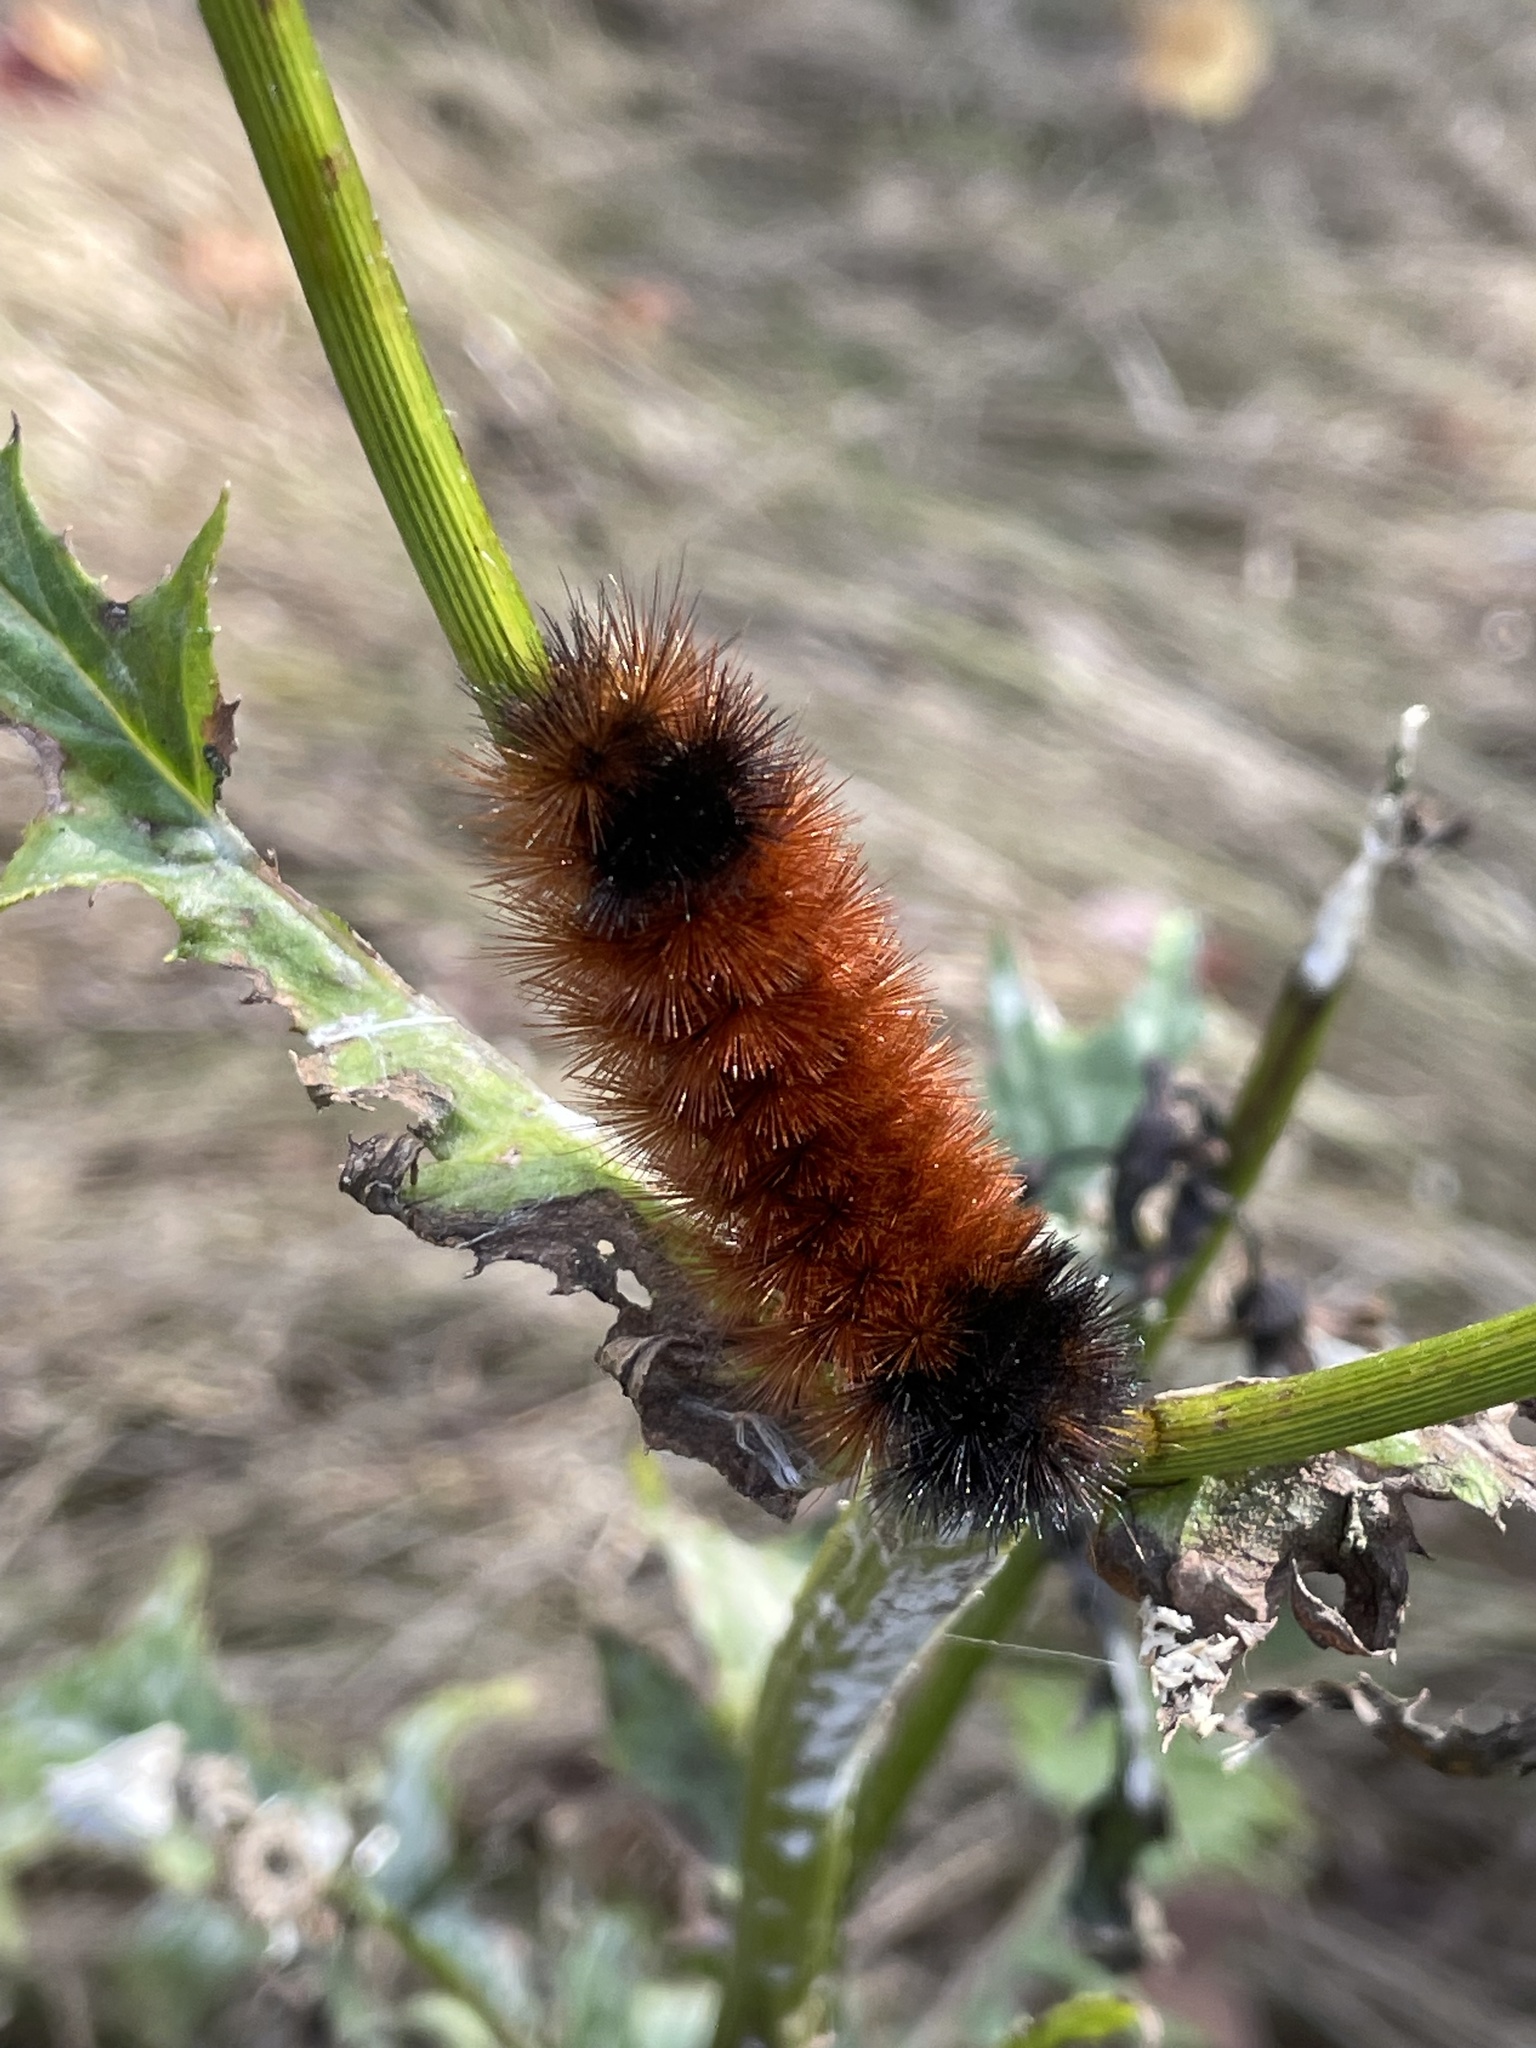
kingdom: Animalia
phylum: Arthropoda
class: Insecta
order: Lepidoptera
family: Erebidae
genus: Pyrrharctia
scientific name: Pyrrharctia isabella
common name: Isabella tiger moth
